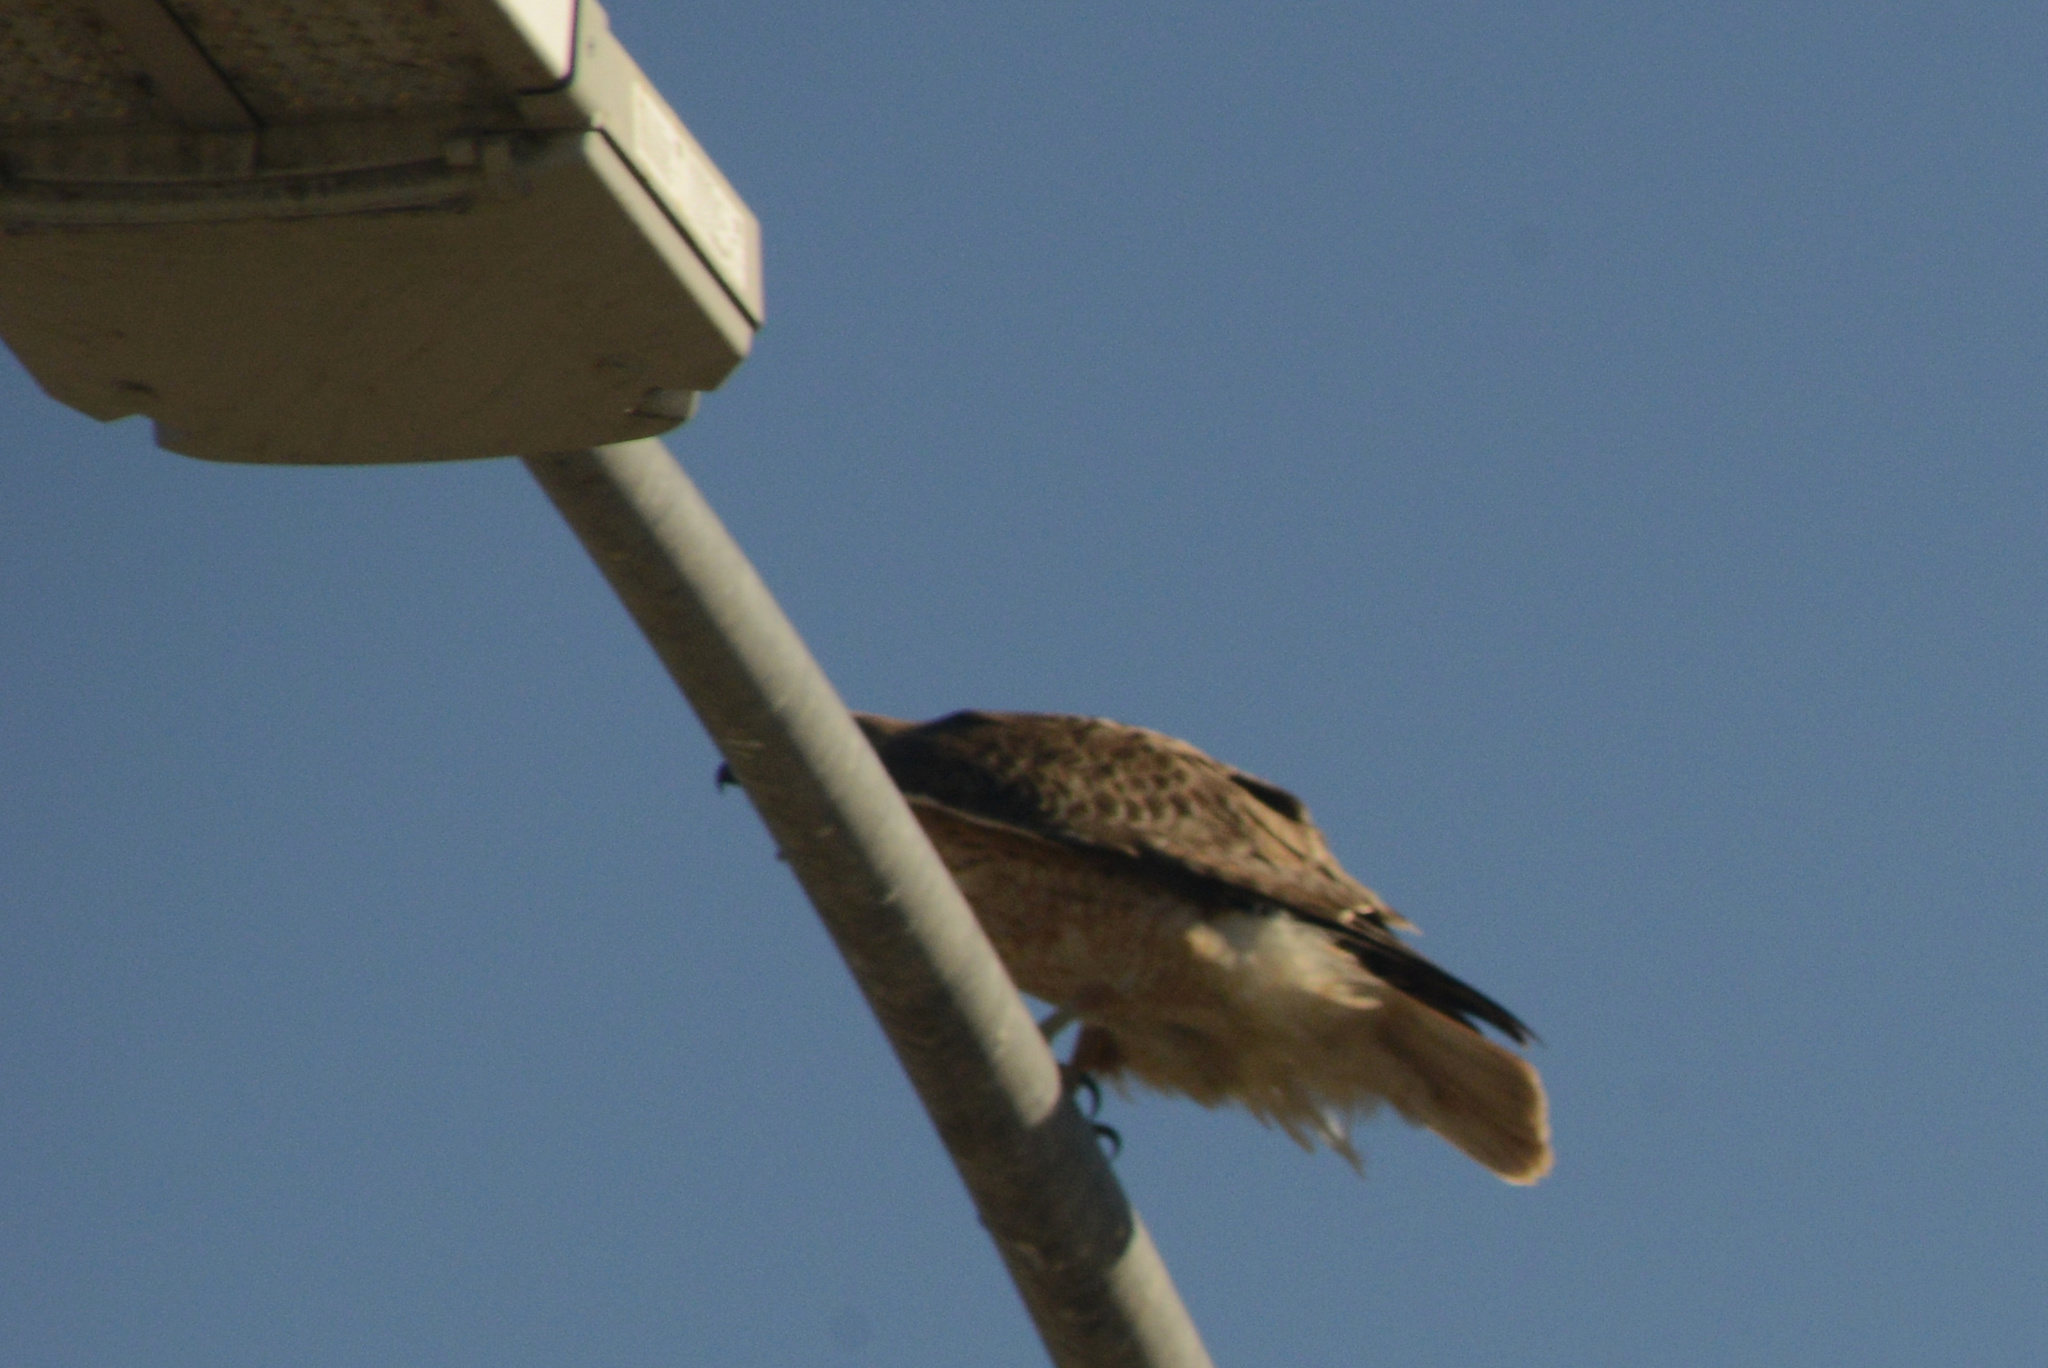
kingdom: Animalia
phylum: Chordata
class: Aves
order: Accipitriformes
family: Accipitridae
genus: Buteo
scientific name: Buteo jamaicensis
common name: Red-tailed hawk
